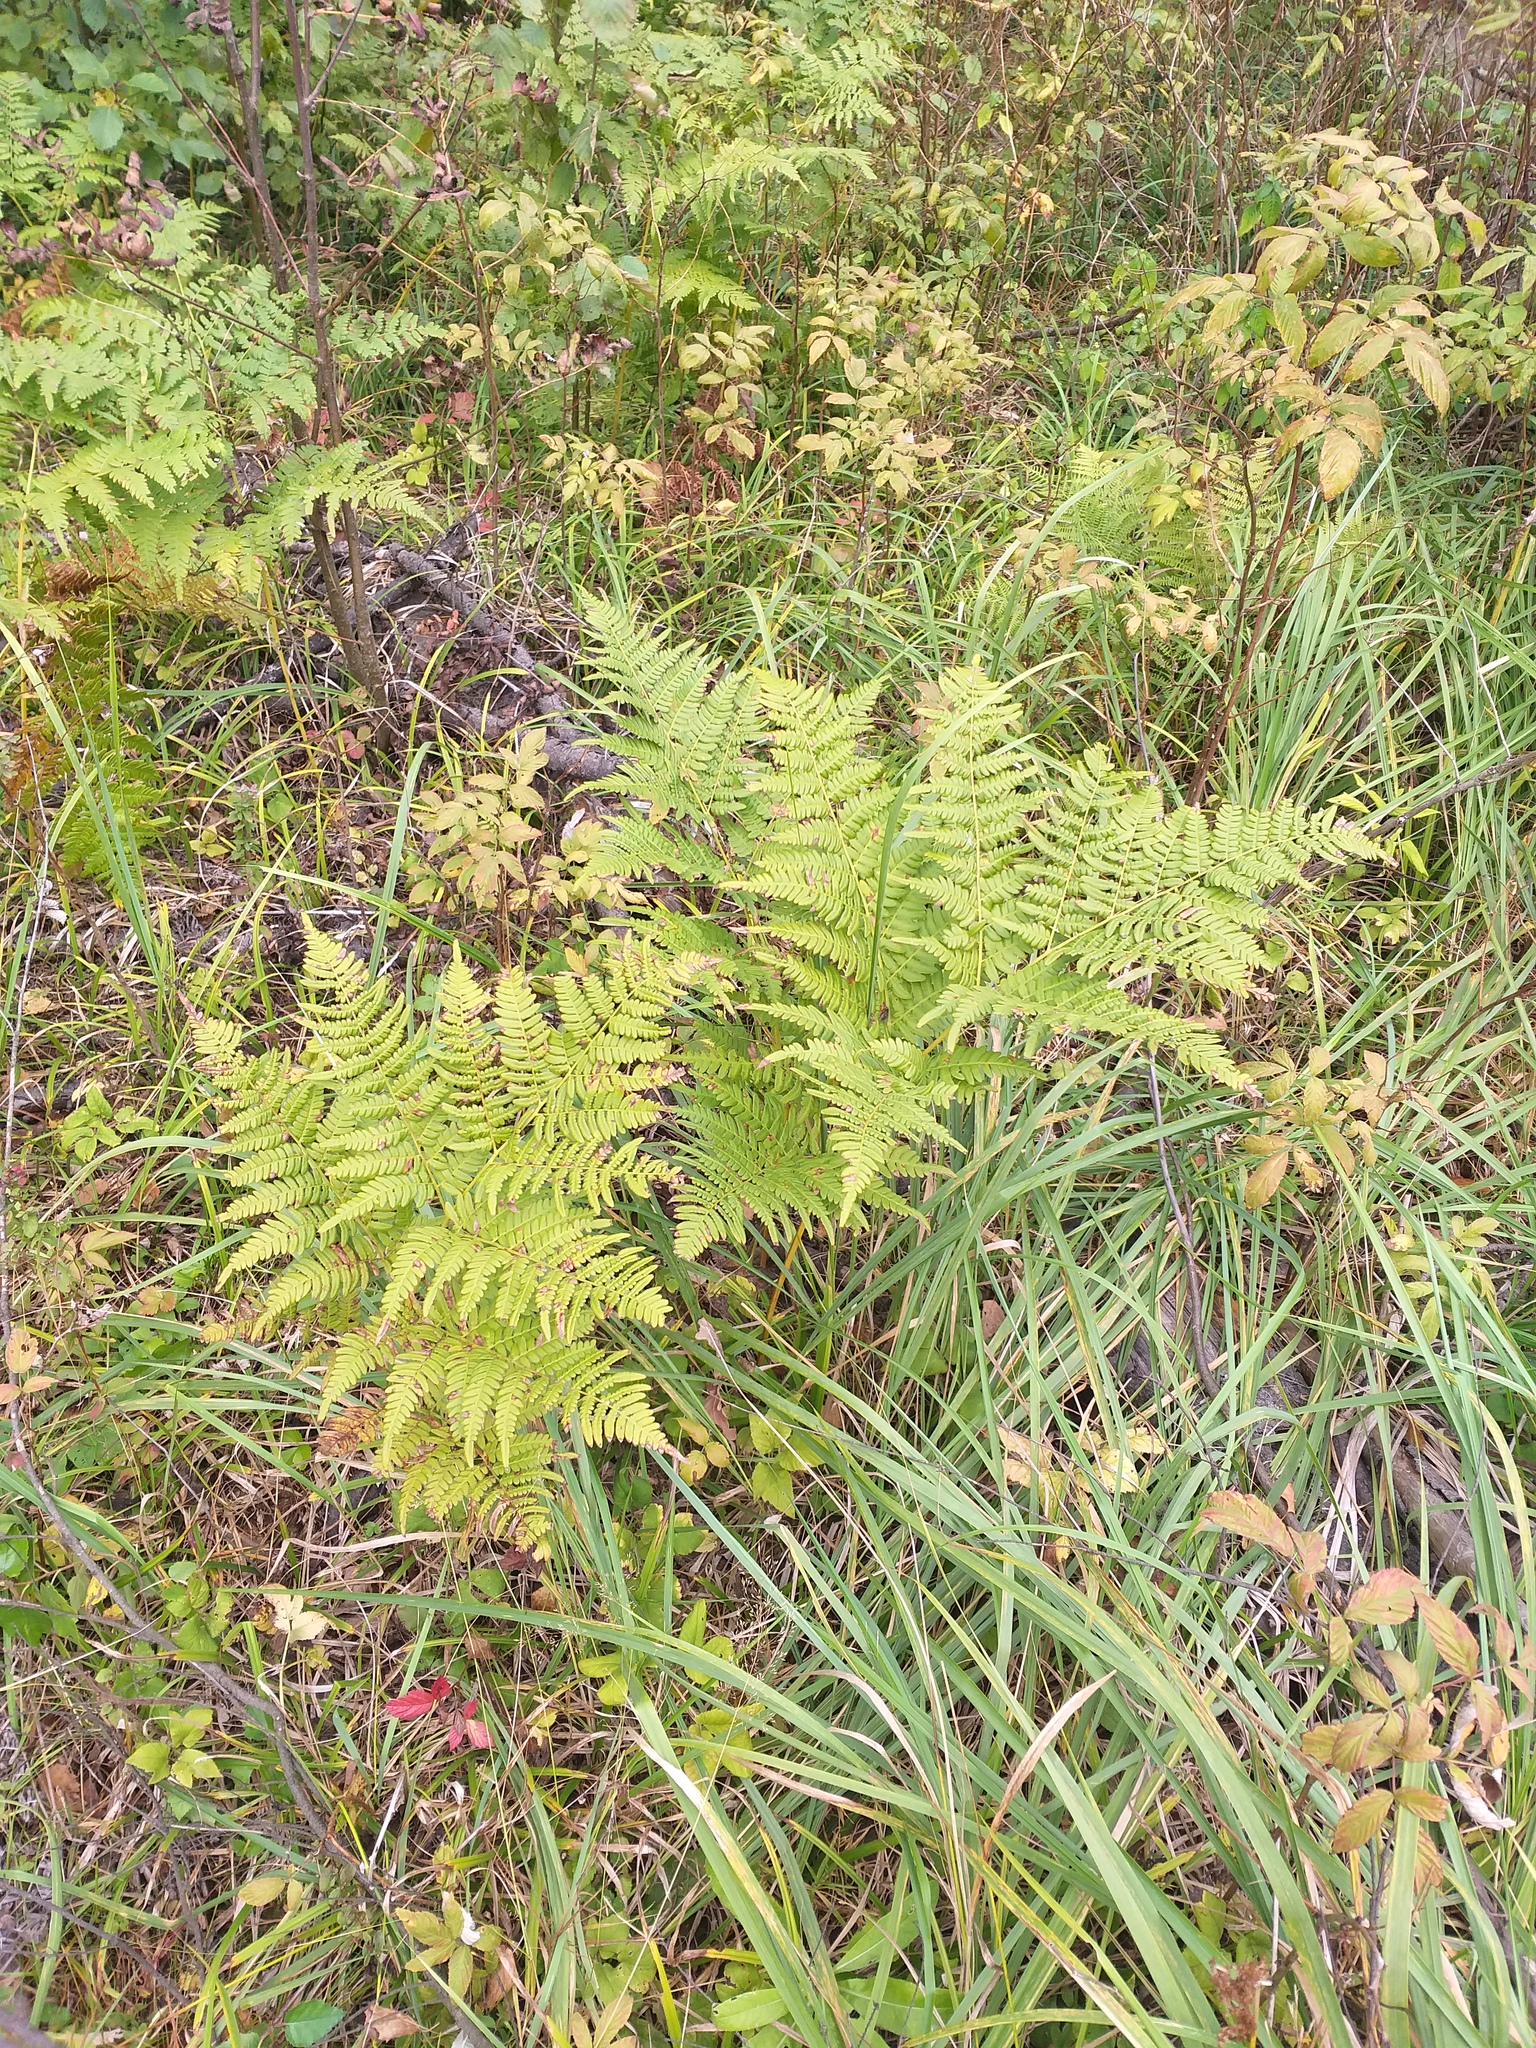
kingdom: Plantae
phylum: Tracheophyta
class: Polypodiopsida
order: Polypodiales
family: Dennstaedtiaceae
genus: Pteridium
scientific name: Pteridium aquilinum
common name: Bracken
